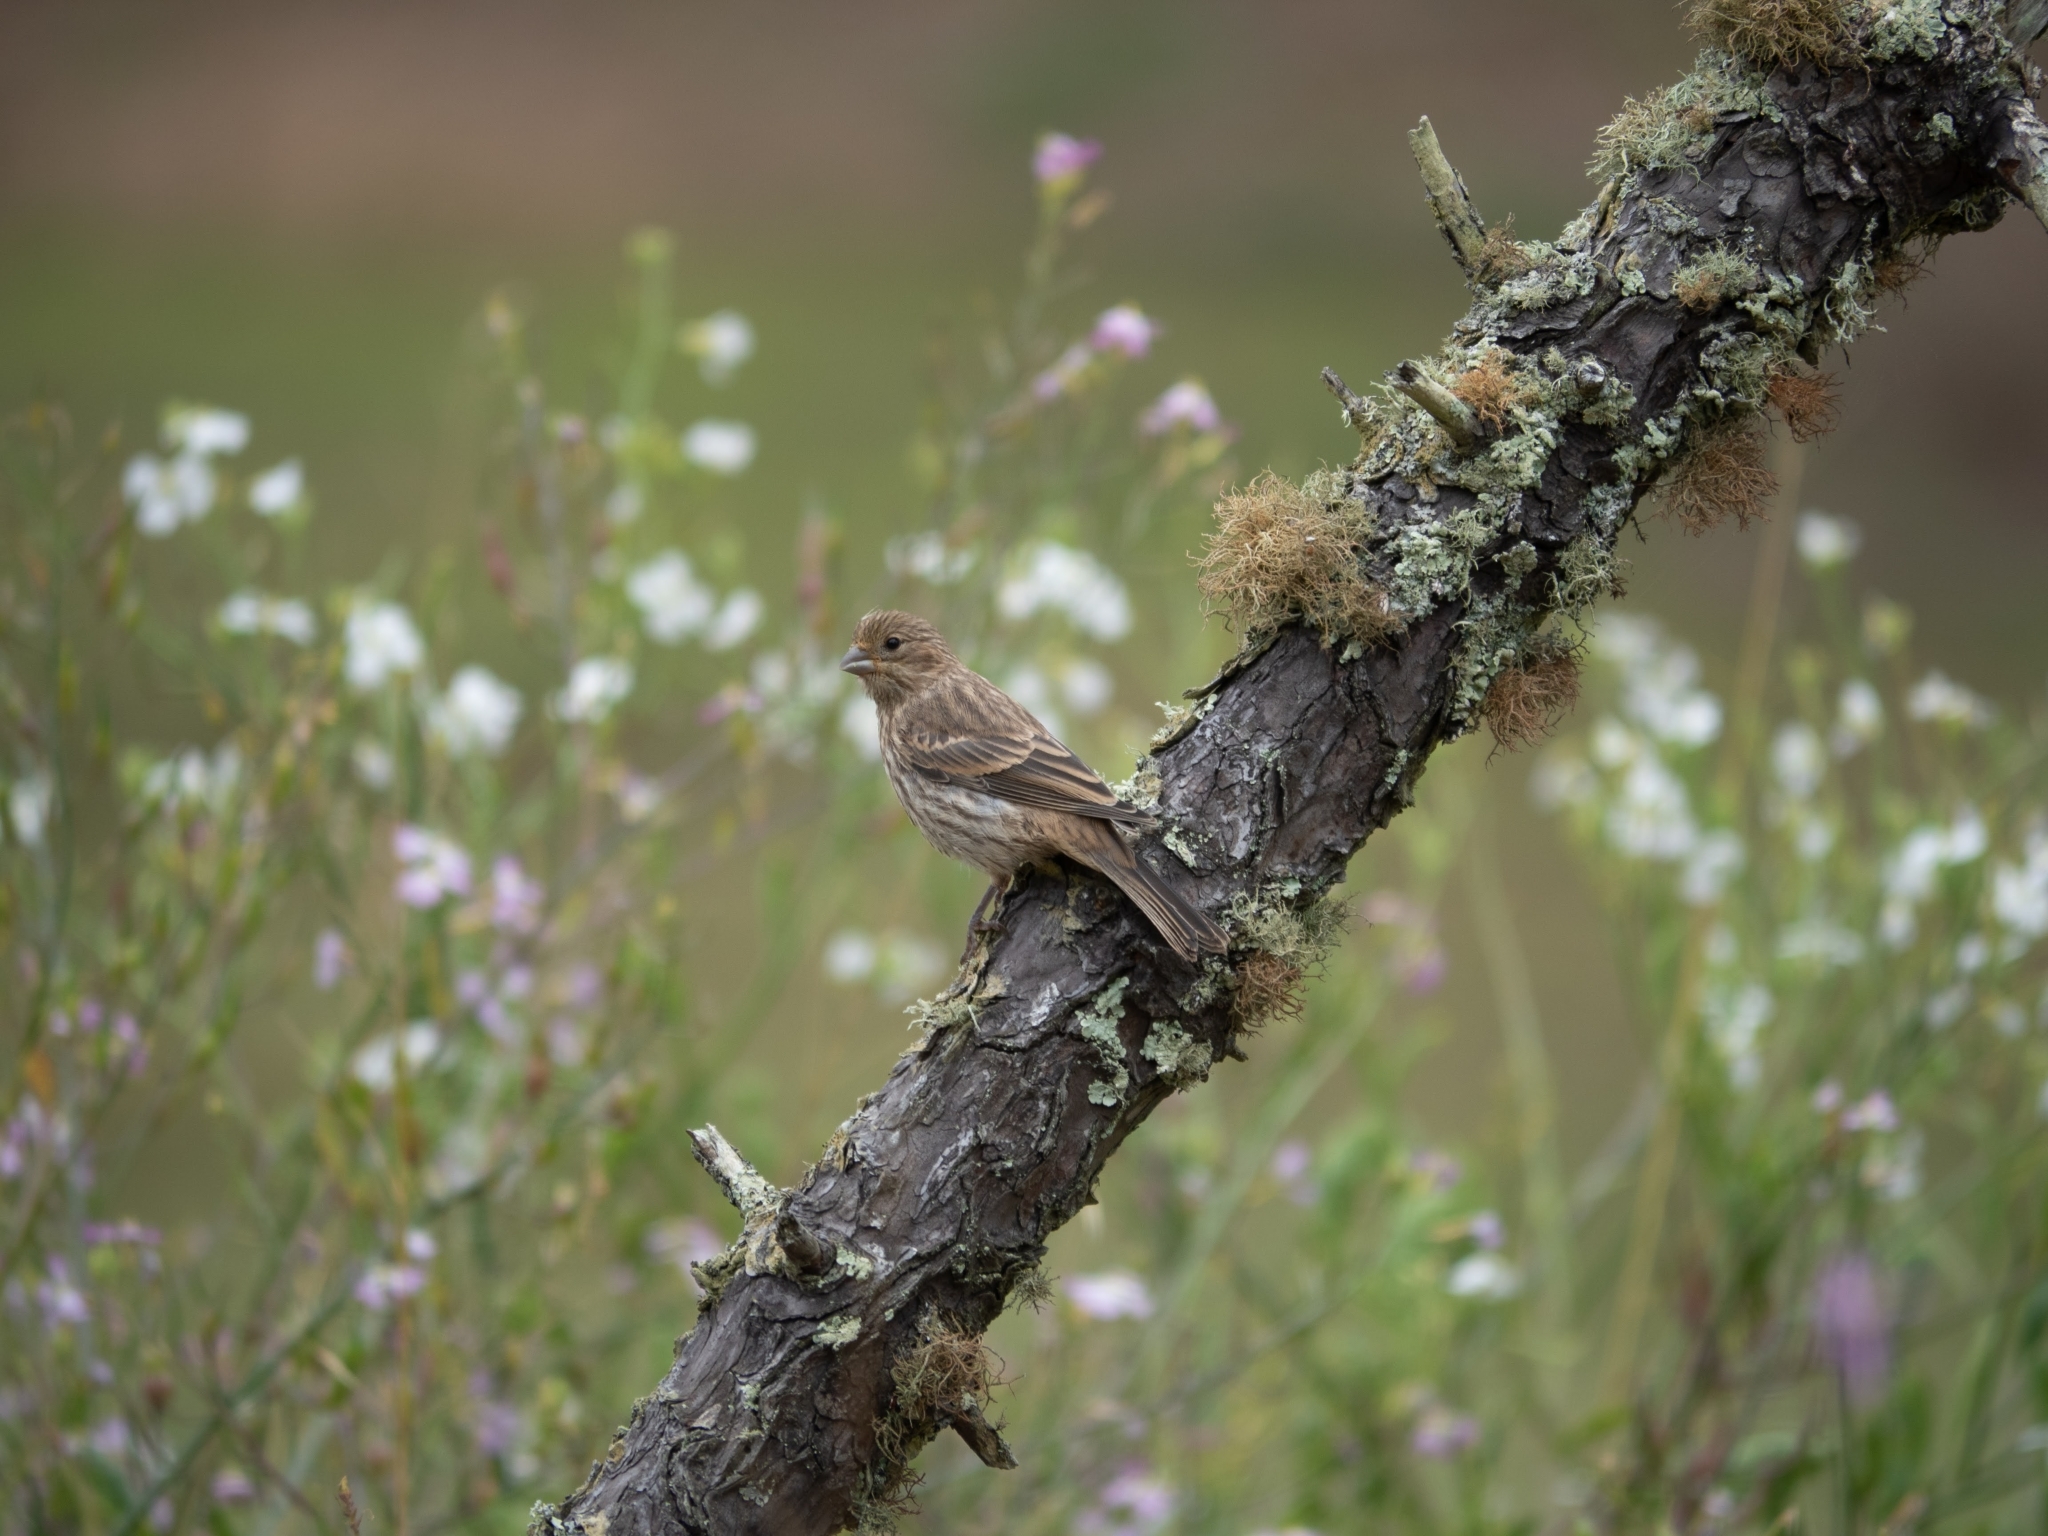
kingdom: Animalia
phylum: Chordata
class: Aves
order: Passeriformes
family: Fringillidae
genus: Haemorhous
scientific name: Haemorhous mexicanus
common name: House finch
